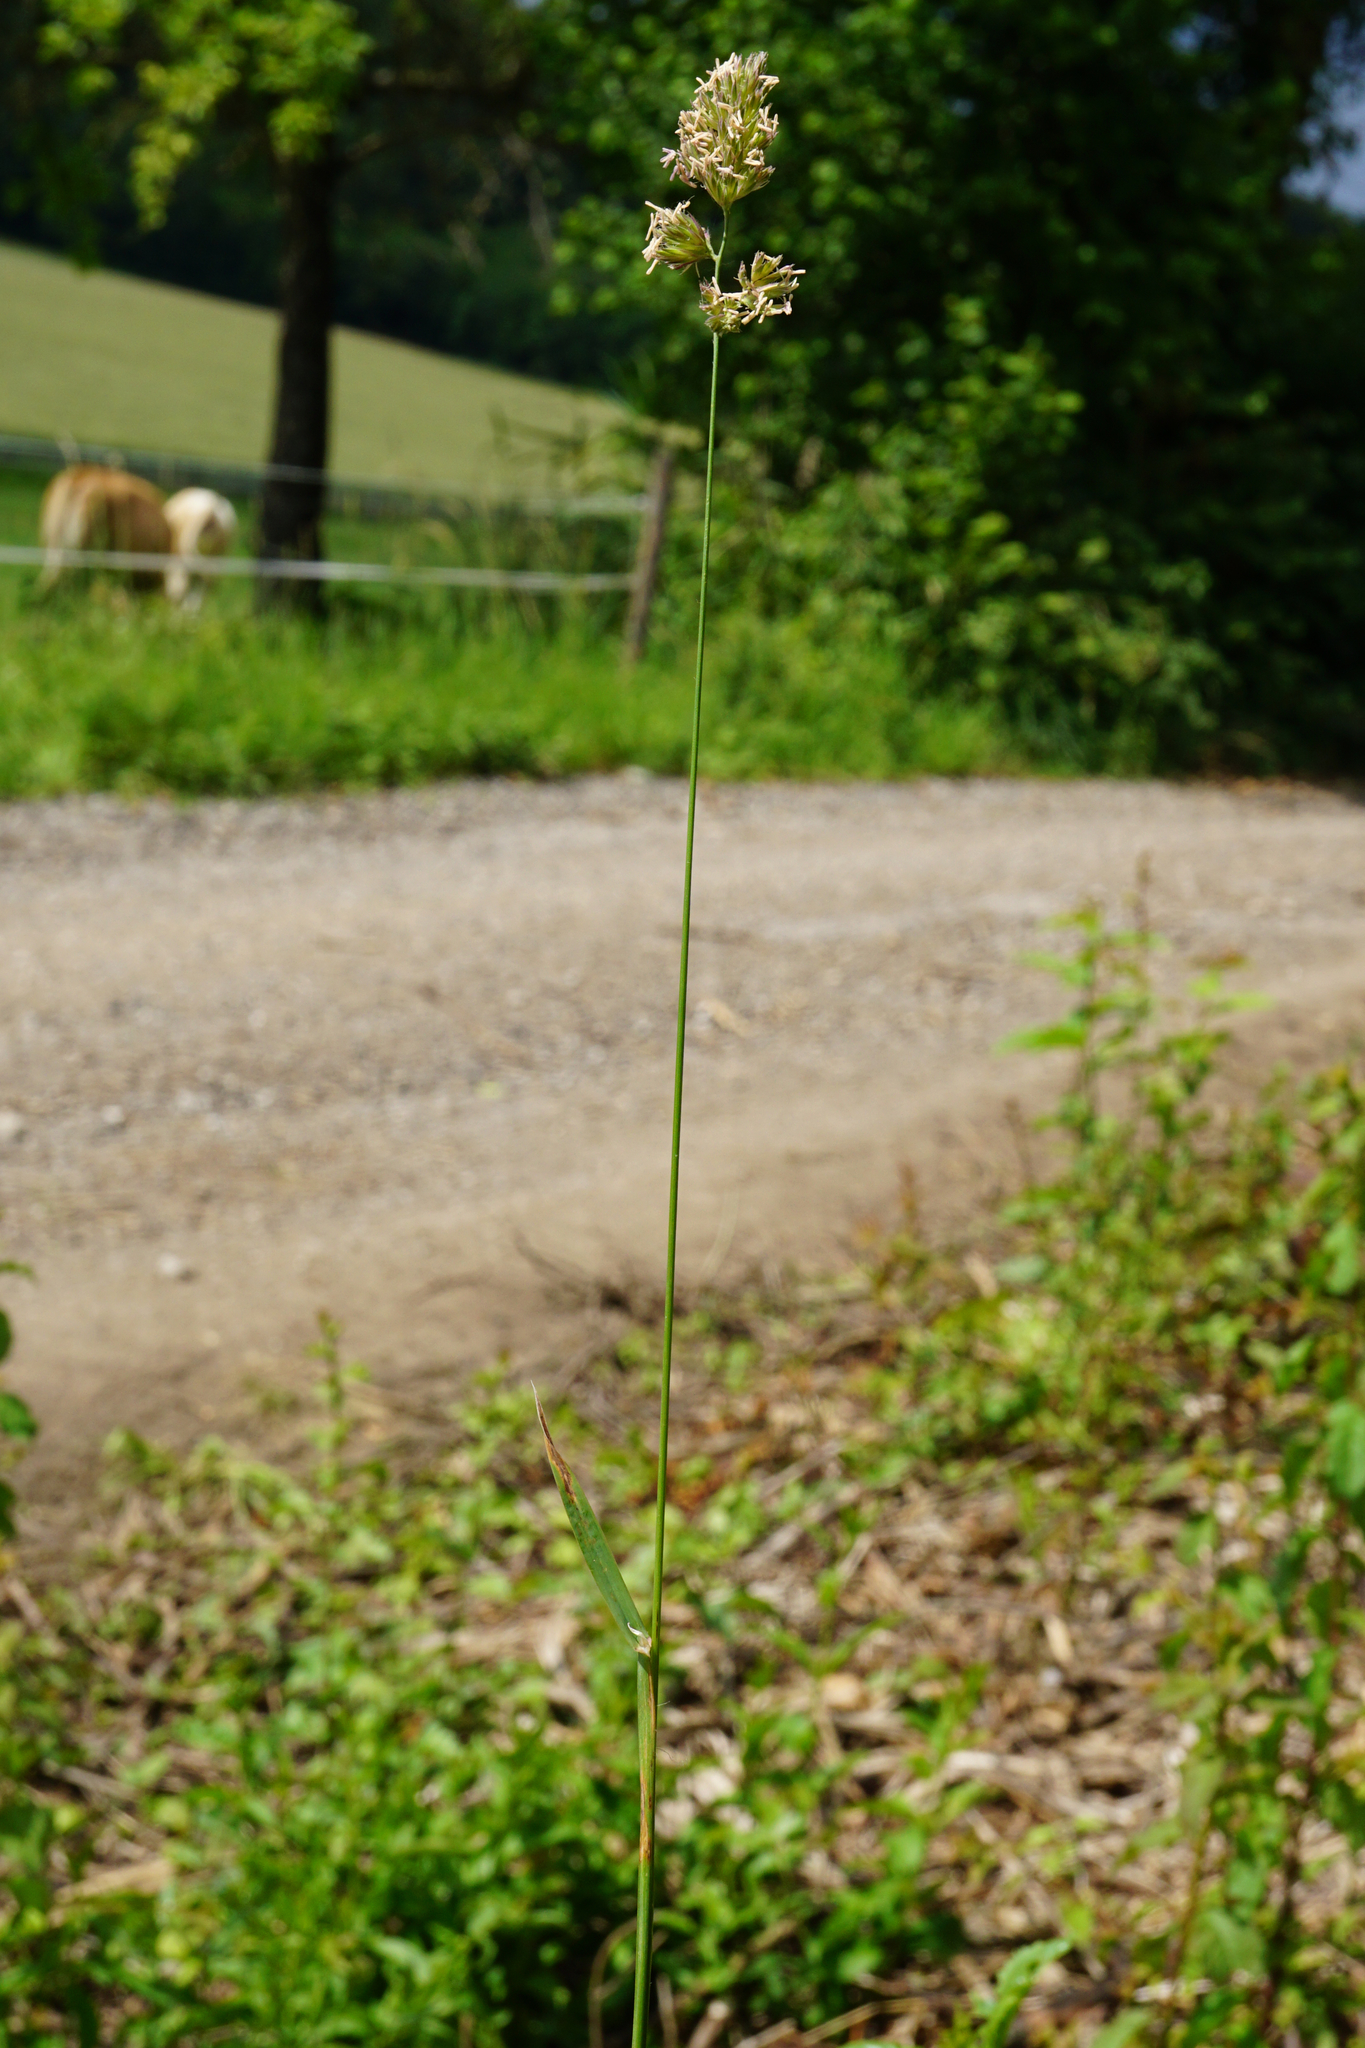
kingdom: Plantae
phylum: Tracheophyta
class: Liliopsida
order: Poales
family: Poaceae
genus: Dactylis
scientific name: Dactylis glomerata
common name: Orchardgrass
